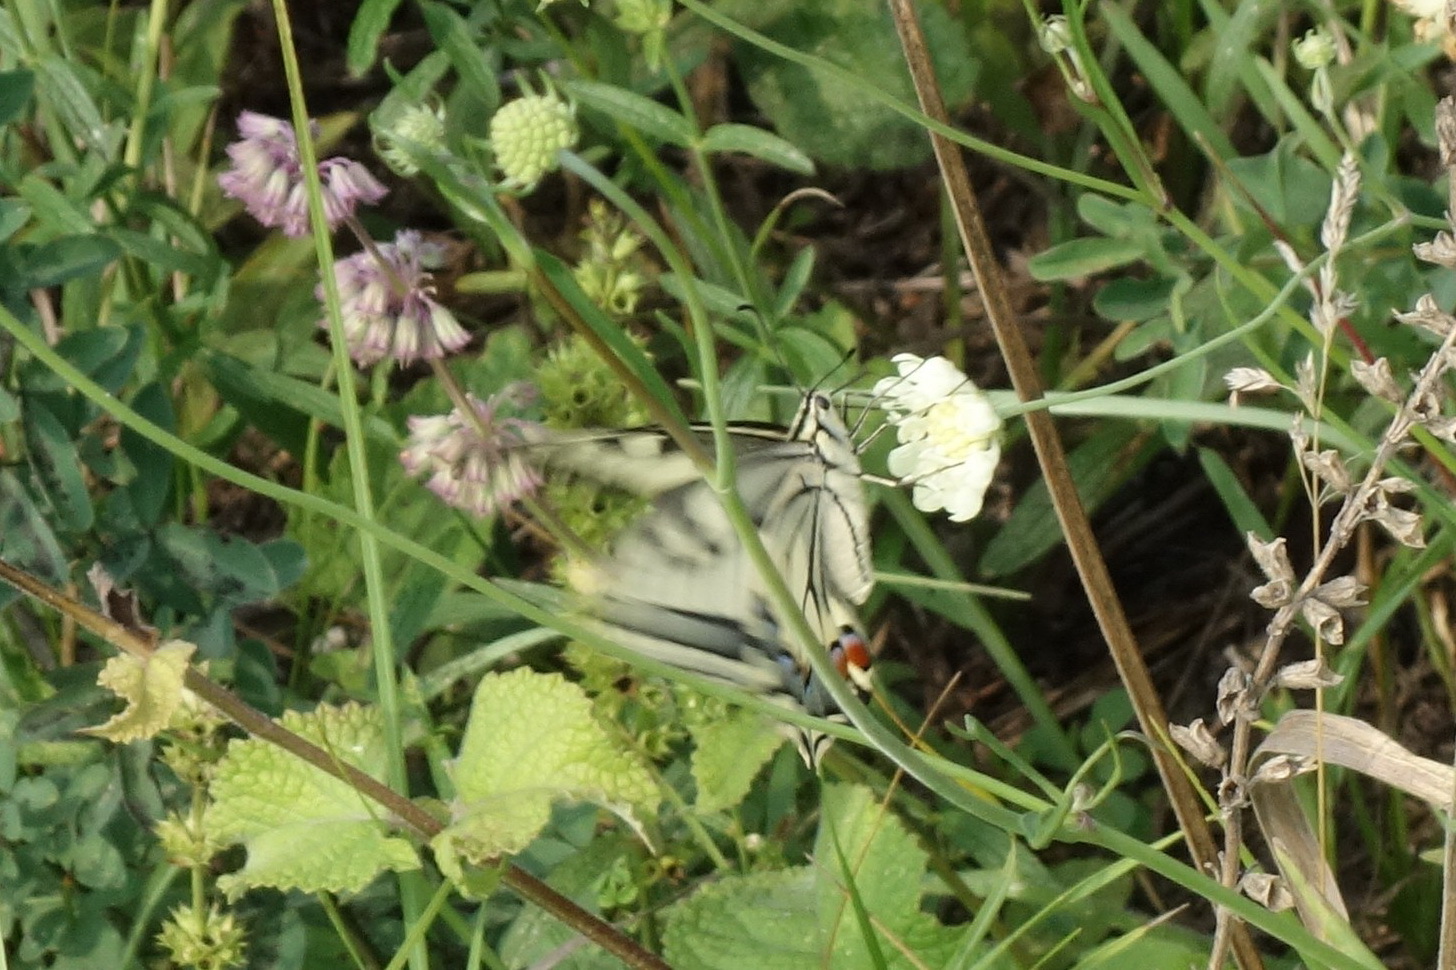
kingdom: Animalia
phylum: Arthropoda
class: Insecta
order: Lepidoptera
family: Papilionidae
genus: Papilio
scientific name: Papilio machaon
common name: Swallowtail
